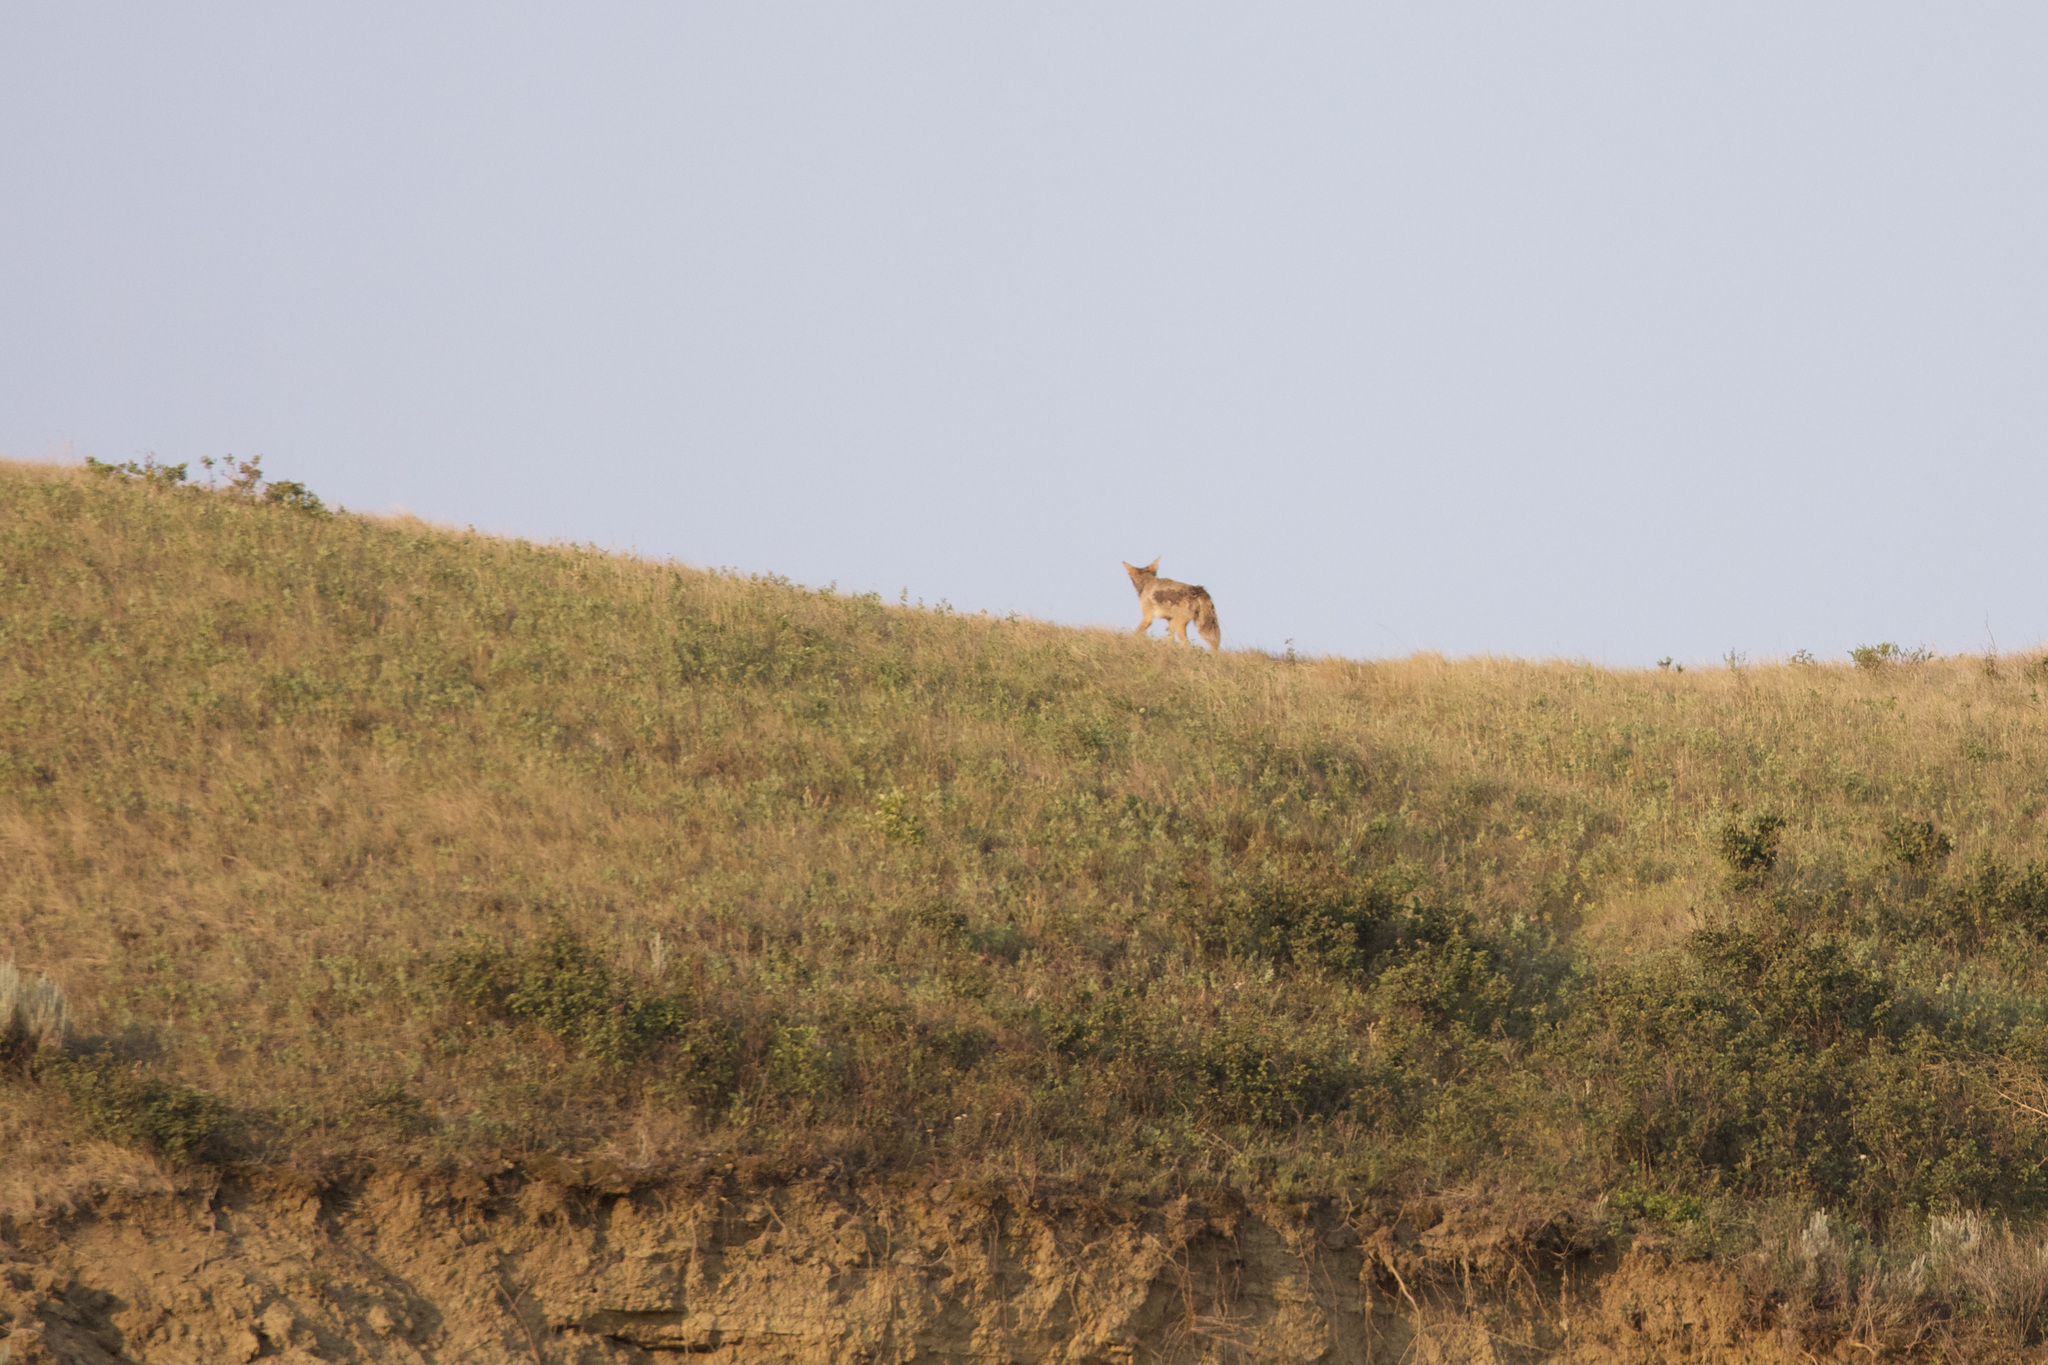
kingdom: Animalia
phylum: Chordata
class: Mammalia
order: Carnivora
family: Canidae
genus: Canis
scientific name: Canis latrans
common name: Coyote
